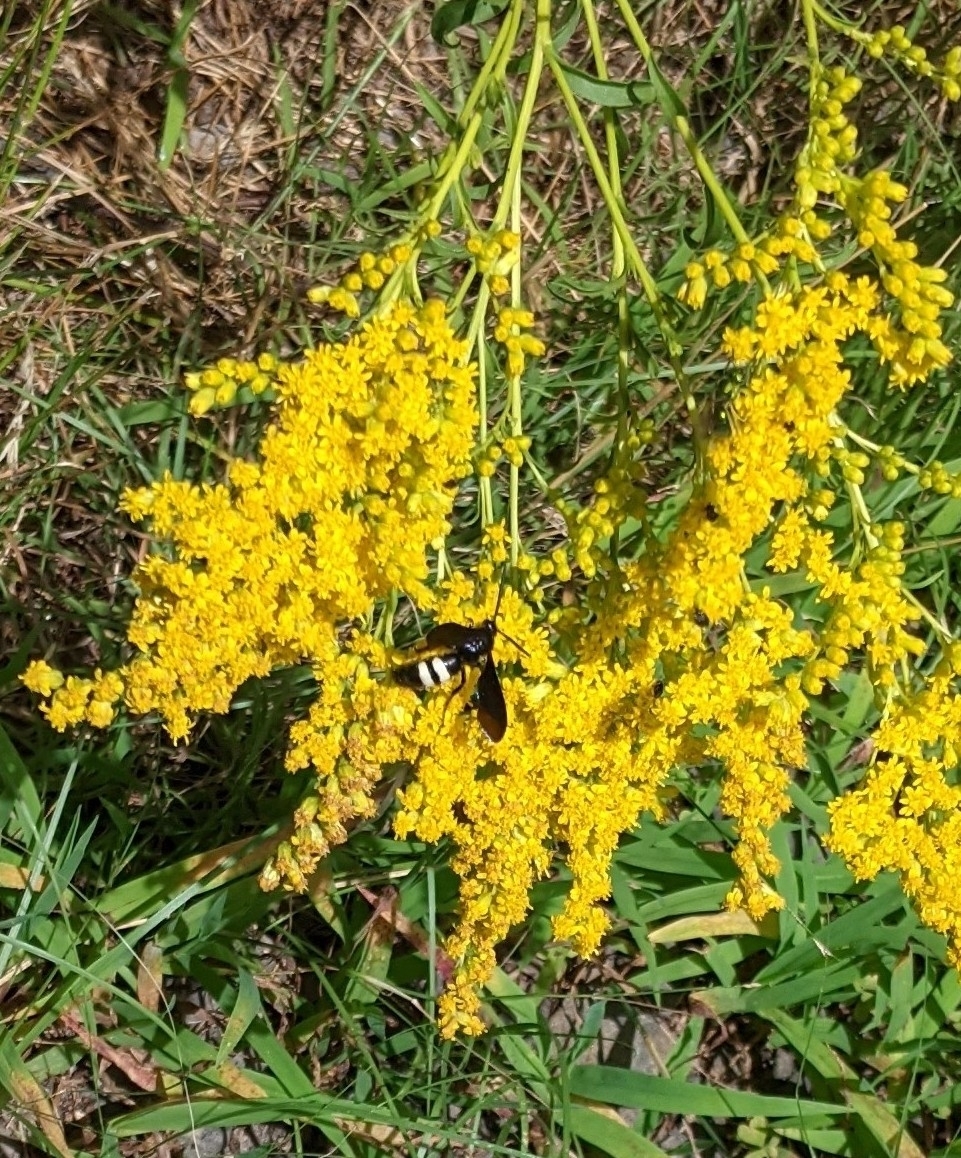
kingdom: Animalia
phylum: Arthropoda
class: Insecta
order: Hymenoptera
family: Scoliidae
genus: Scolia
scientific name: Scolia bicincta
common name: Double-banded scoliid wasp
